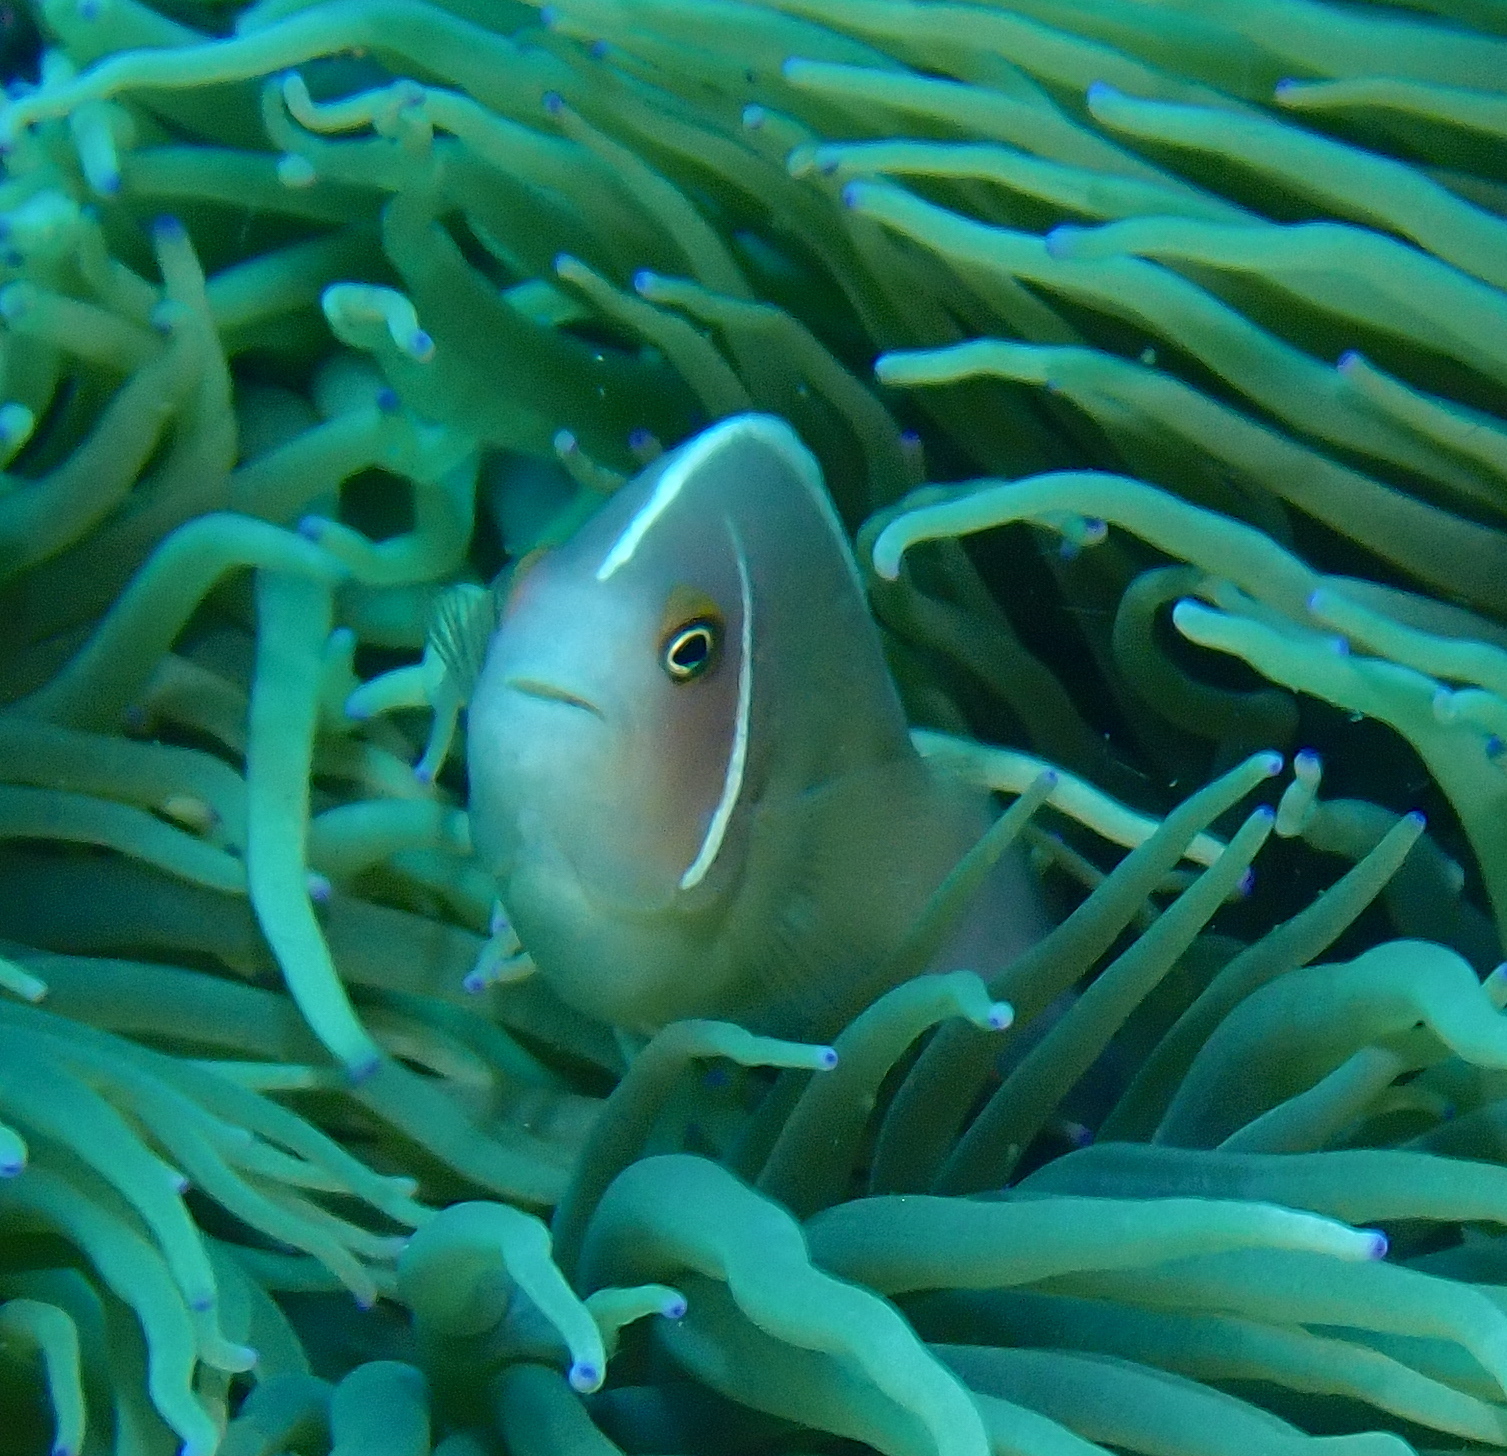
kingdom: Animalia
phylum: Chordata
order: Perciformes
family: Pomacentridae
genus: Amphiprion
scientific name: Amphiprion perideraion
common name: Pink anemonefish
